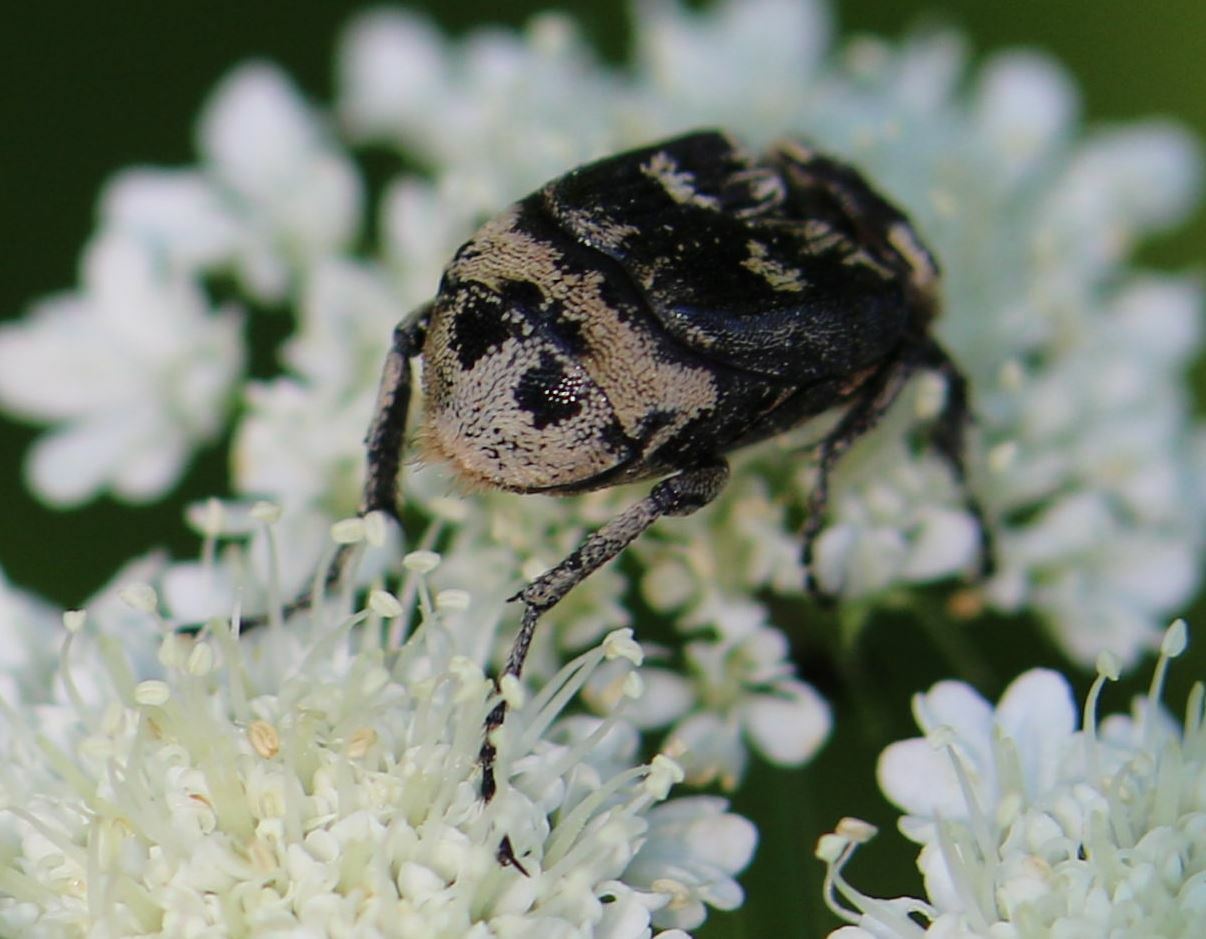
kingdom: Animalia
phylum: Arthropoda
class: Insecta
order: Coleoptera
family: Scarabaeidae
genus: Valgus
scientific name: Valgus hemipterus
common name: Bug flower chafer
